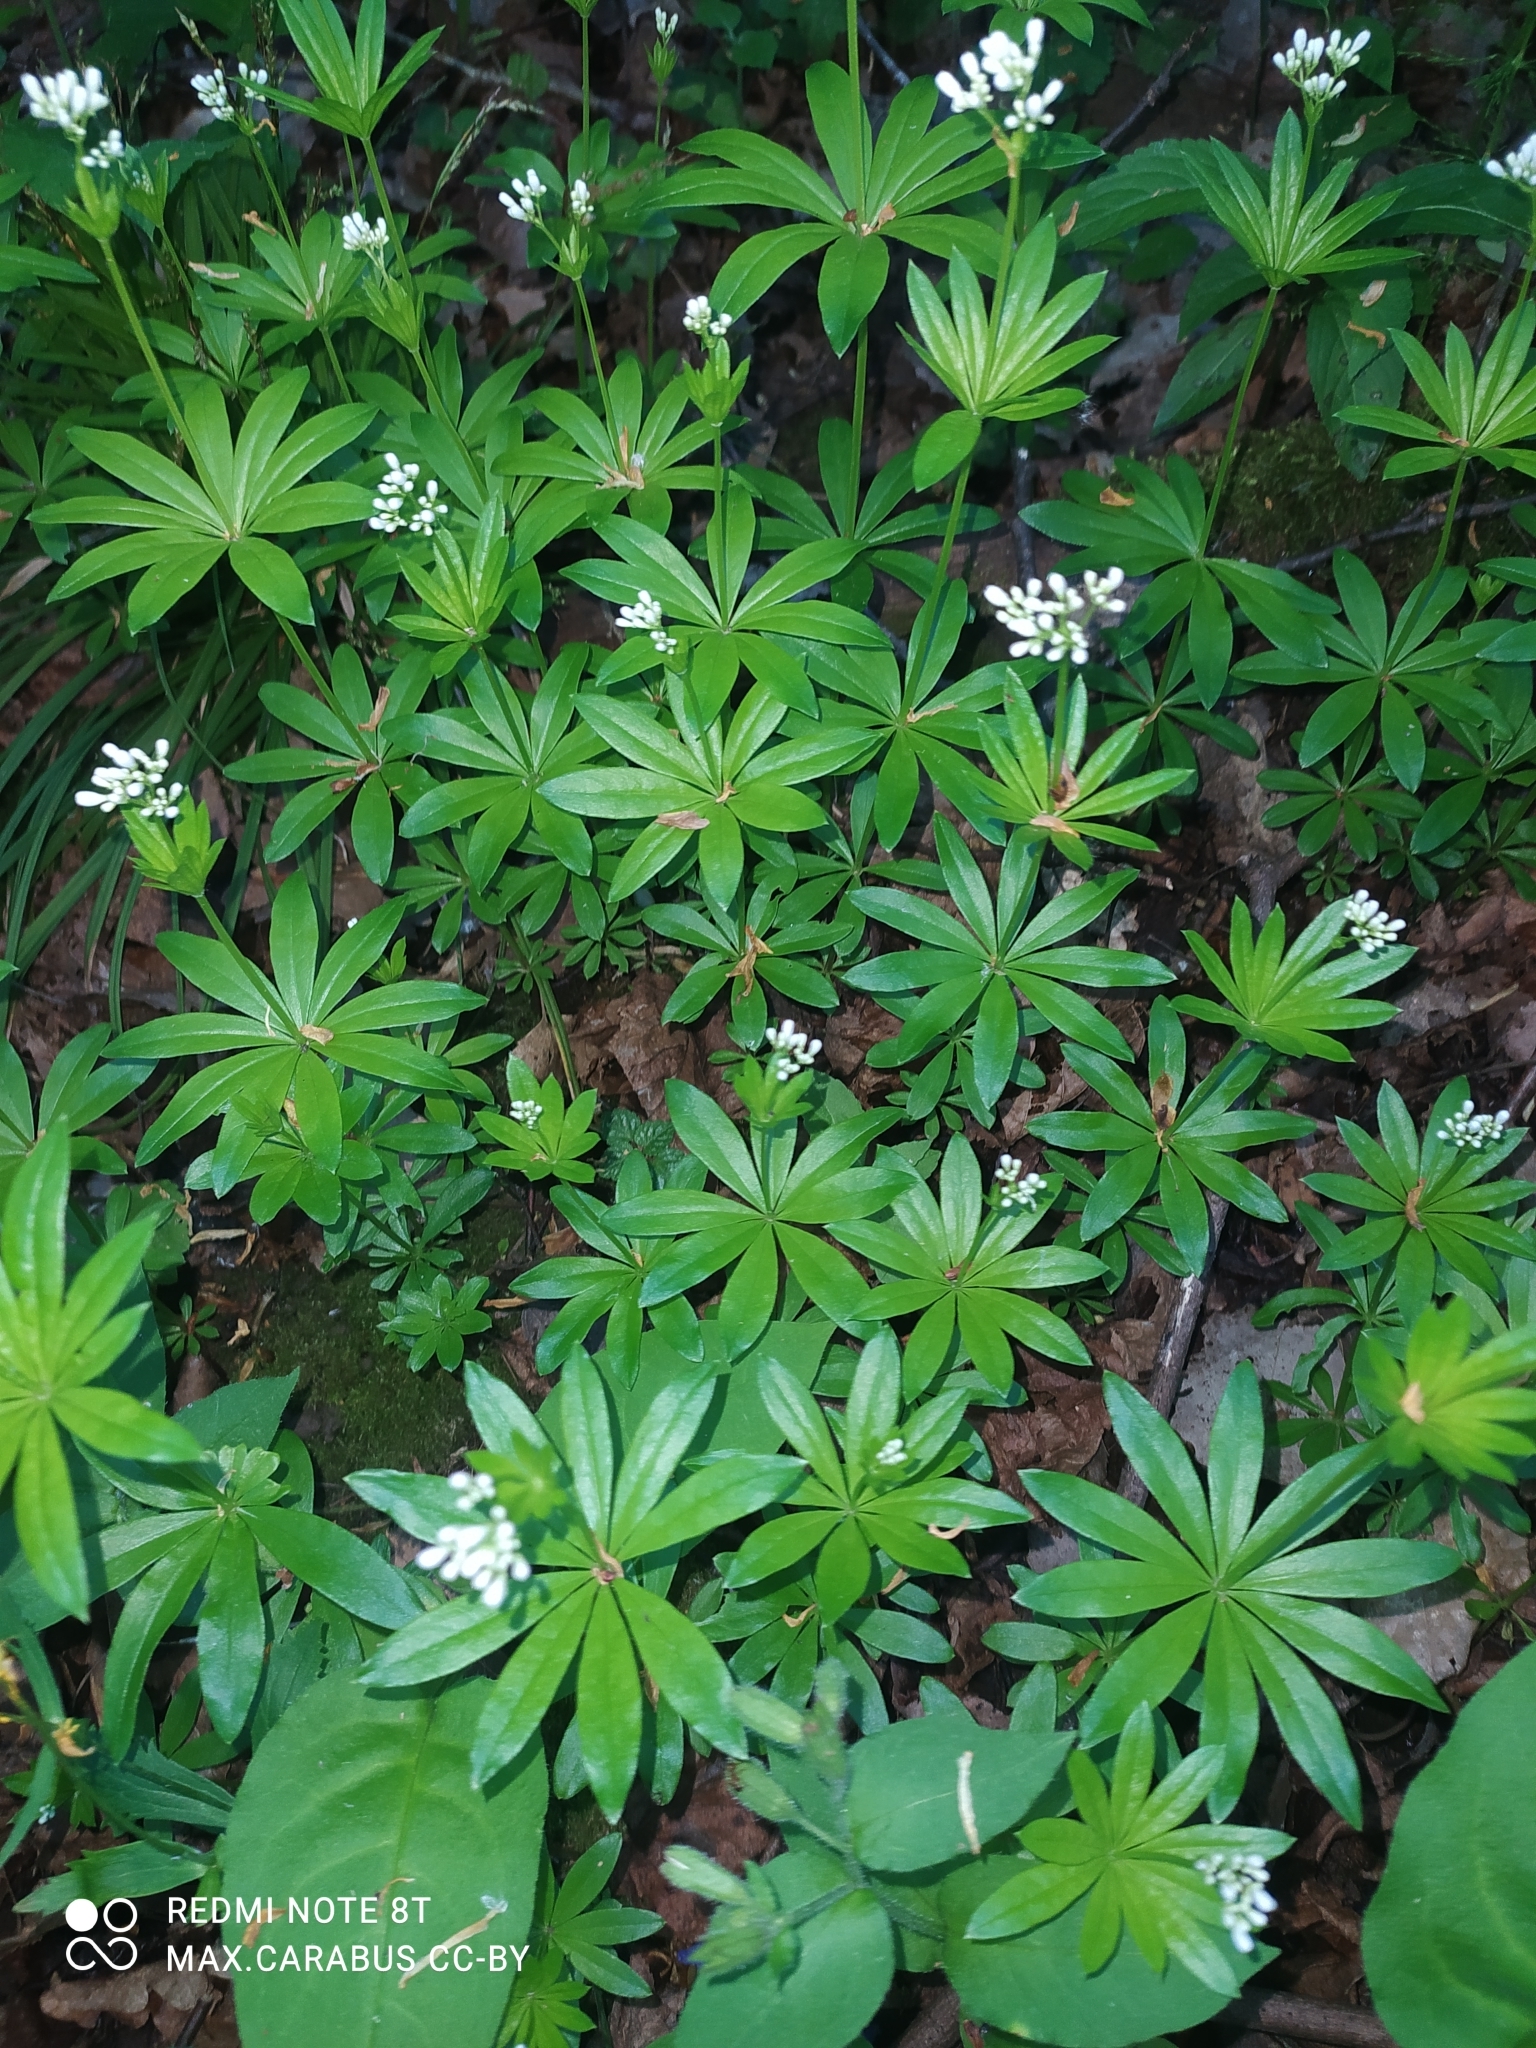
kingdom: Plantae
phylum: Tracheophyta
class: Magnoliopsida
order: Gentianales
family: Rubiaceae
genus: Galium
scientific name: Galium odoratum
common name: Sweet woodruff
